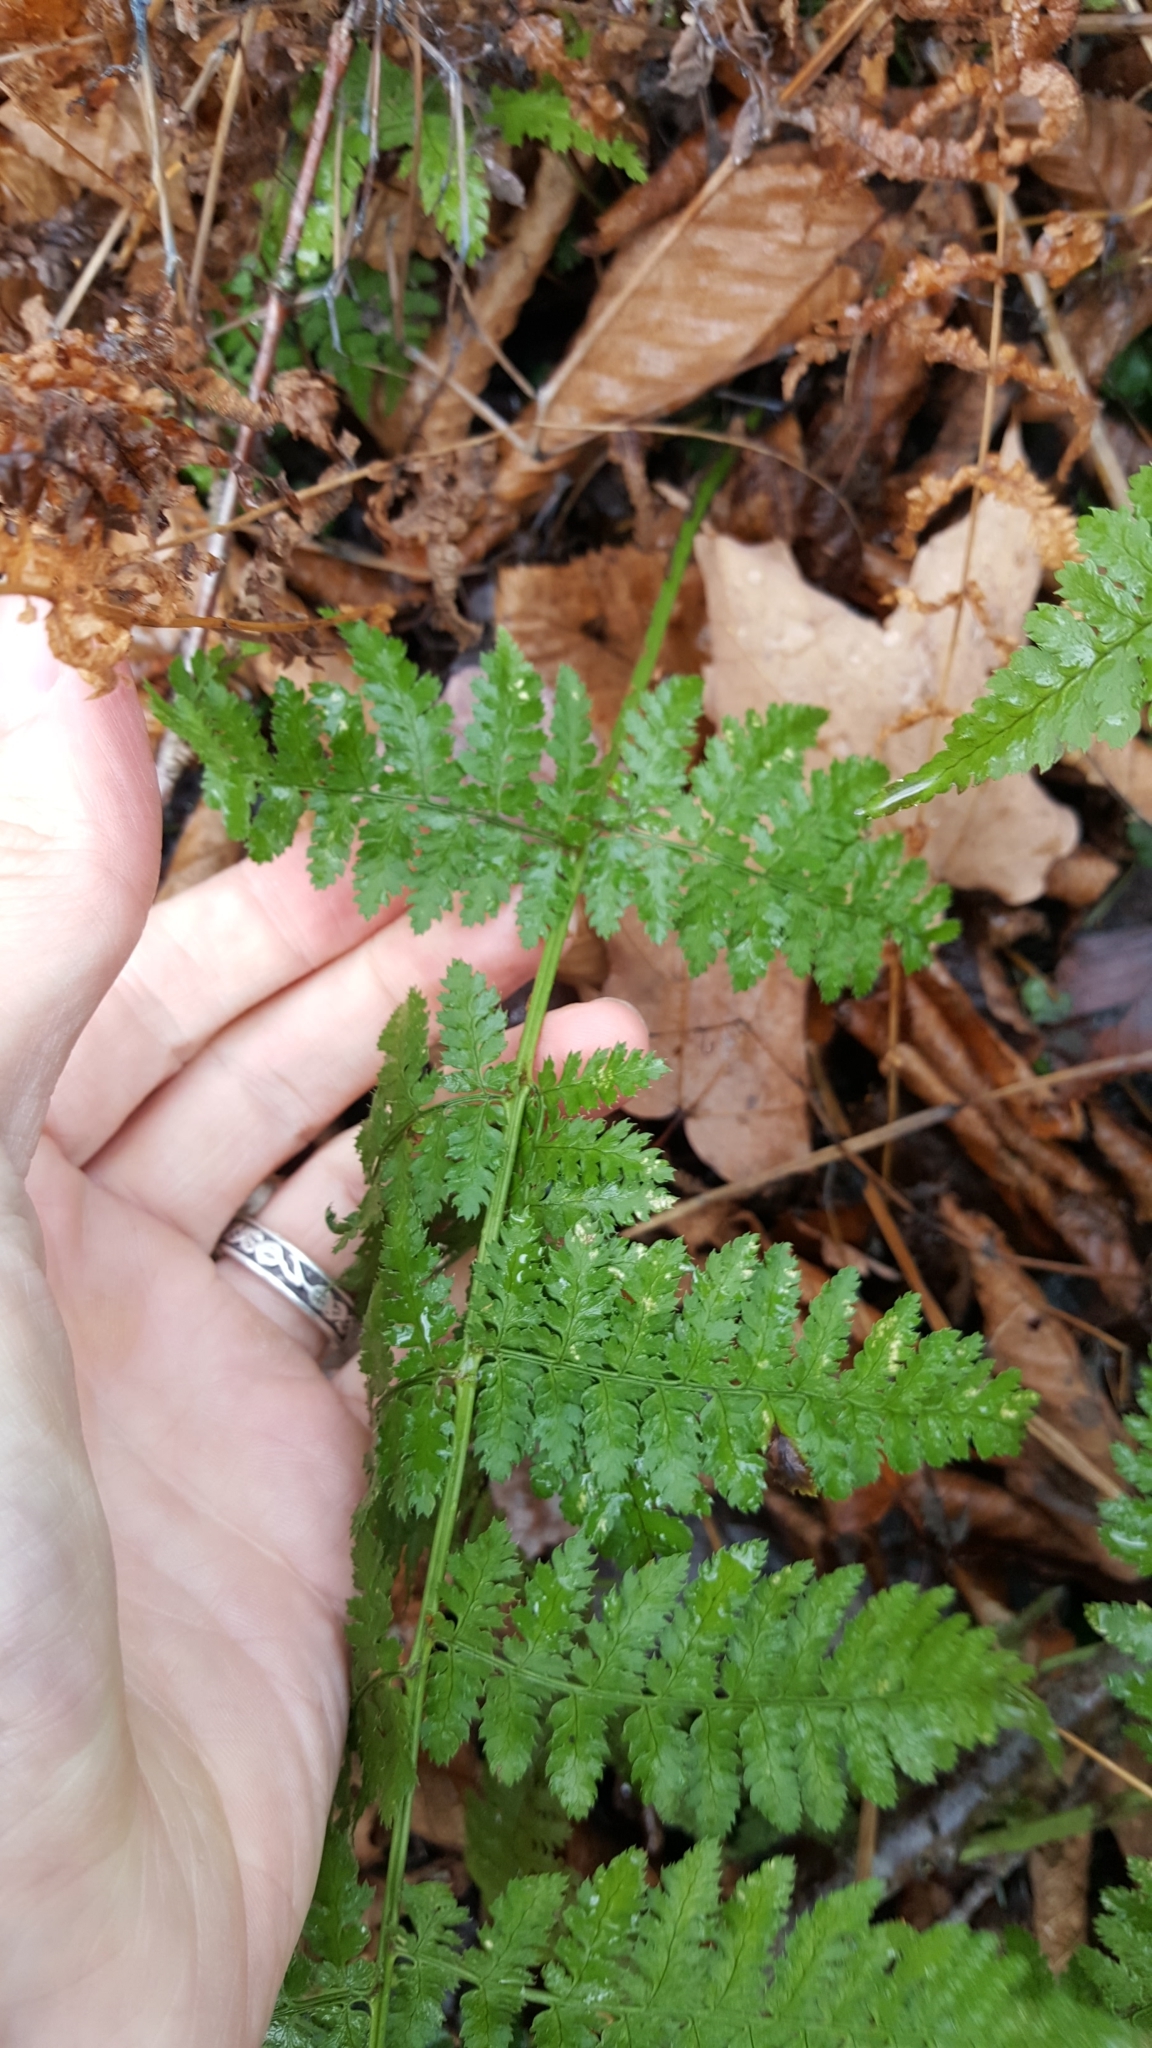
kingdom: Plantae
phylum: Tracheophyta
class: Polypodiopsida
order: Polypodiales
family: Dryopteridaceae
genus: Dryopteris
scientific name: Dryopteris intermedia
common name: Evergreen wood fern
